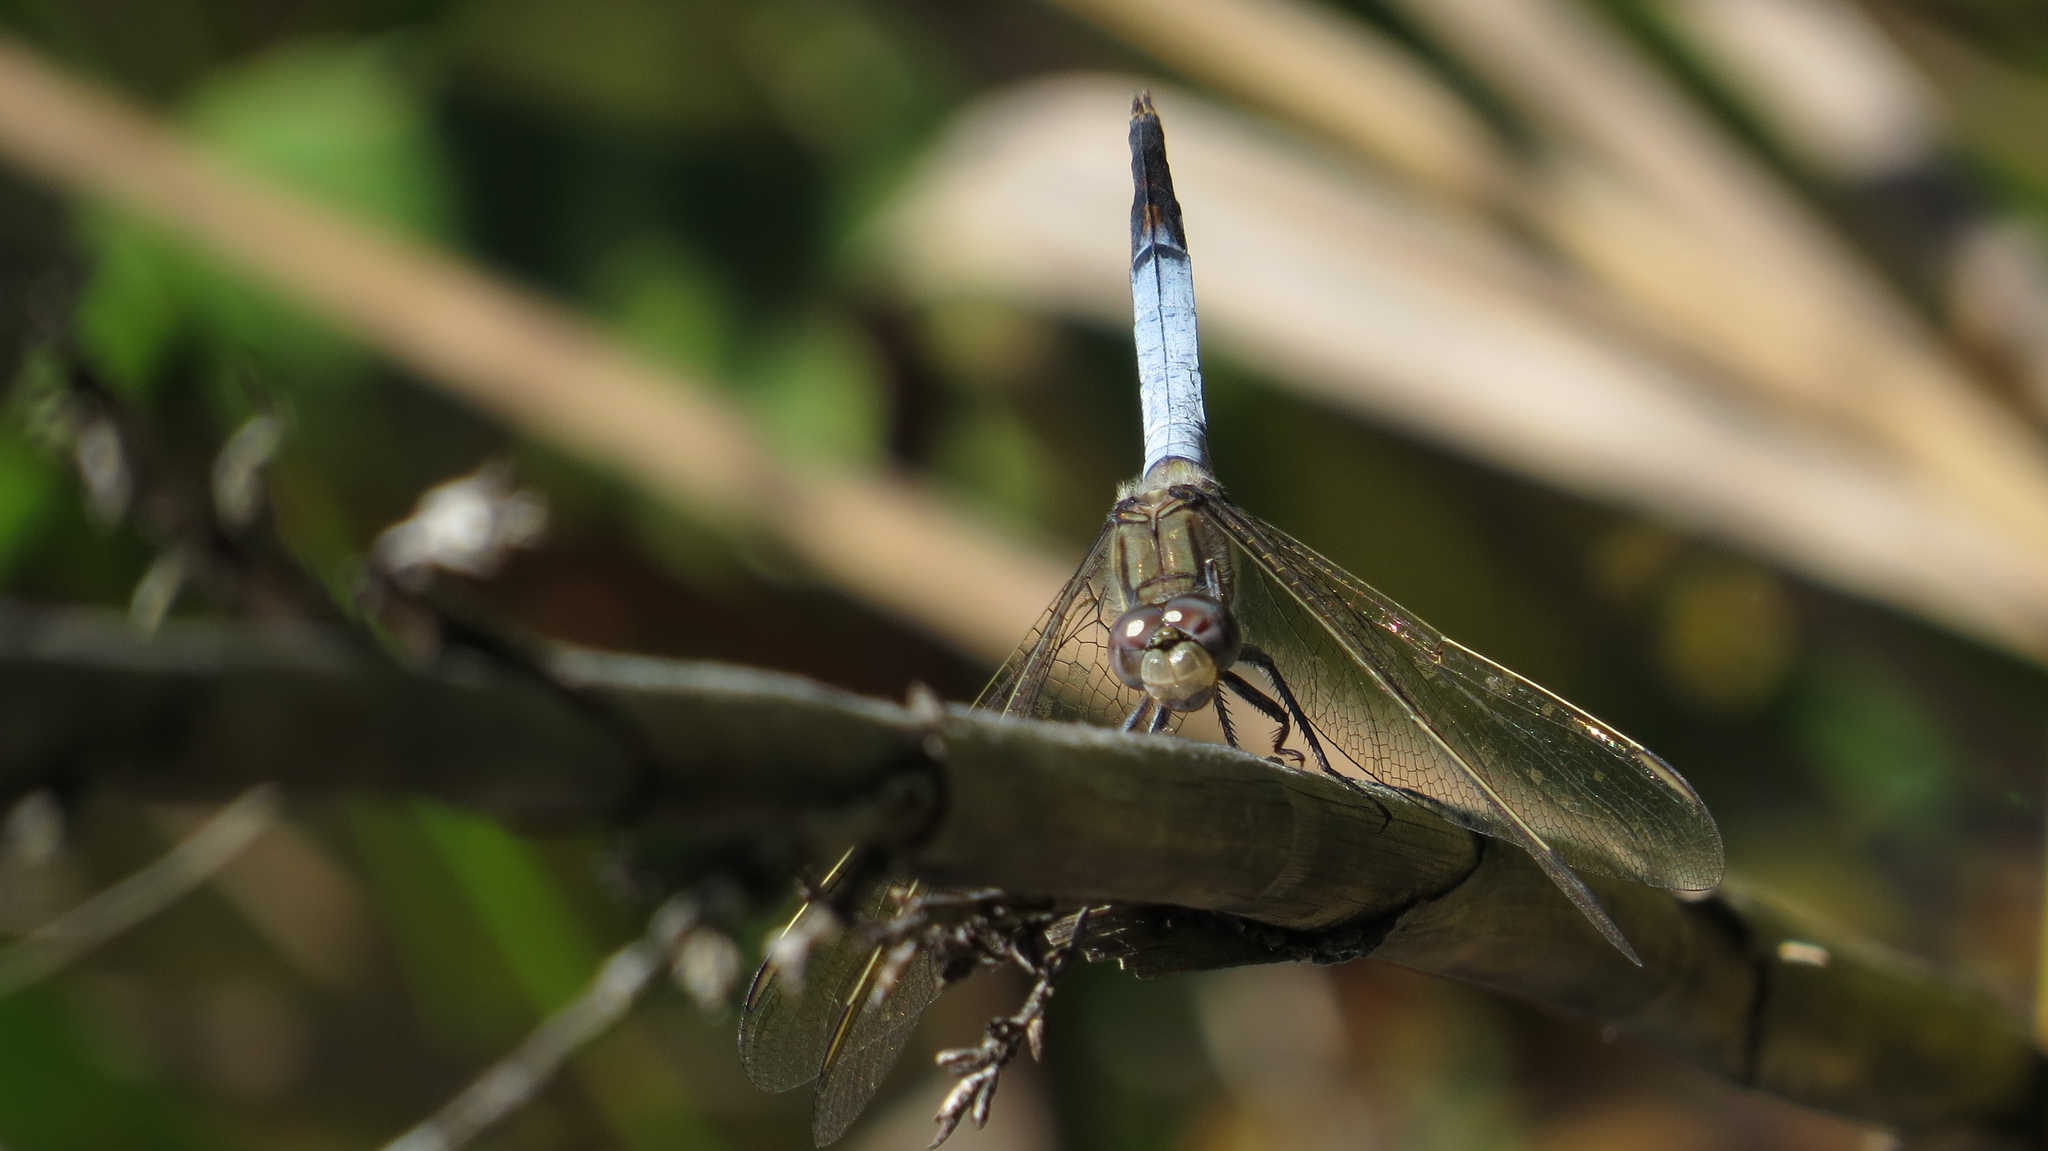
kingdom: Animalia
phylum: Arthropoda
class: Insecta
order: Odonata
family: Libellulidae
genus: Orthetrum
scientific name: Orthetrum caledonicum
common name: Blue skimmer
